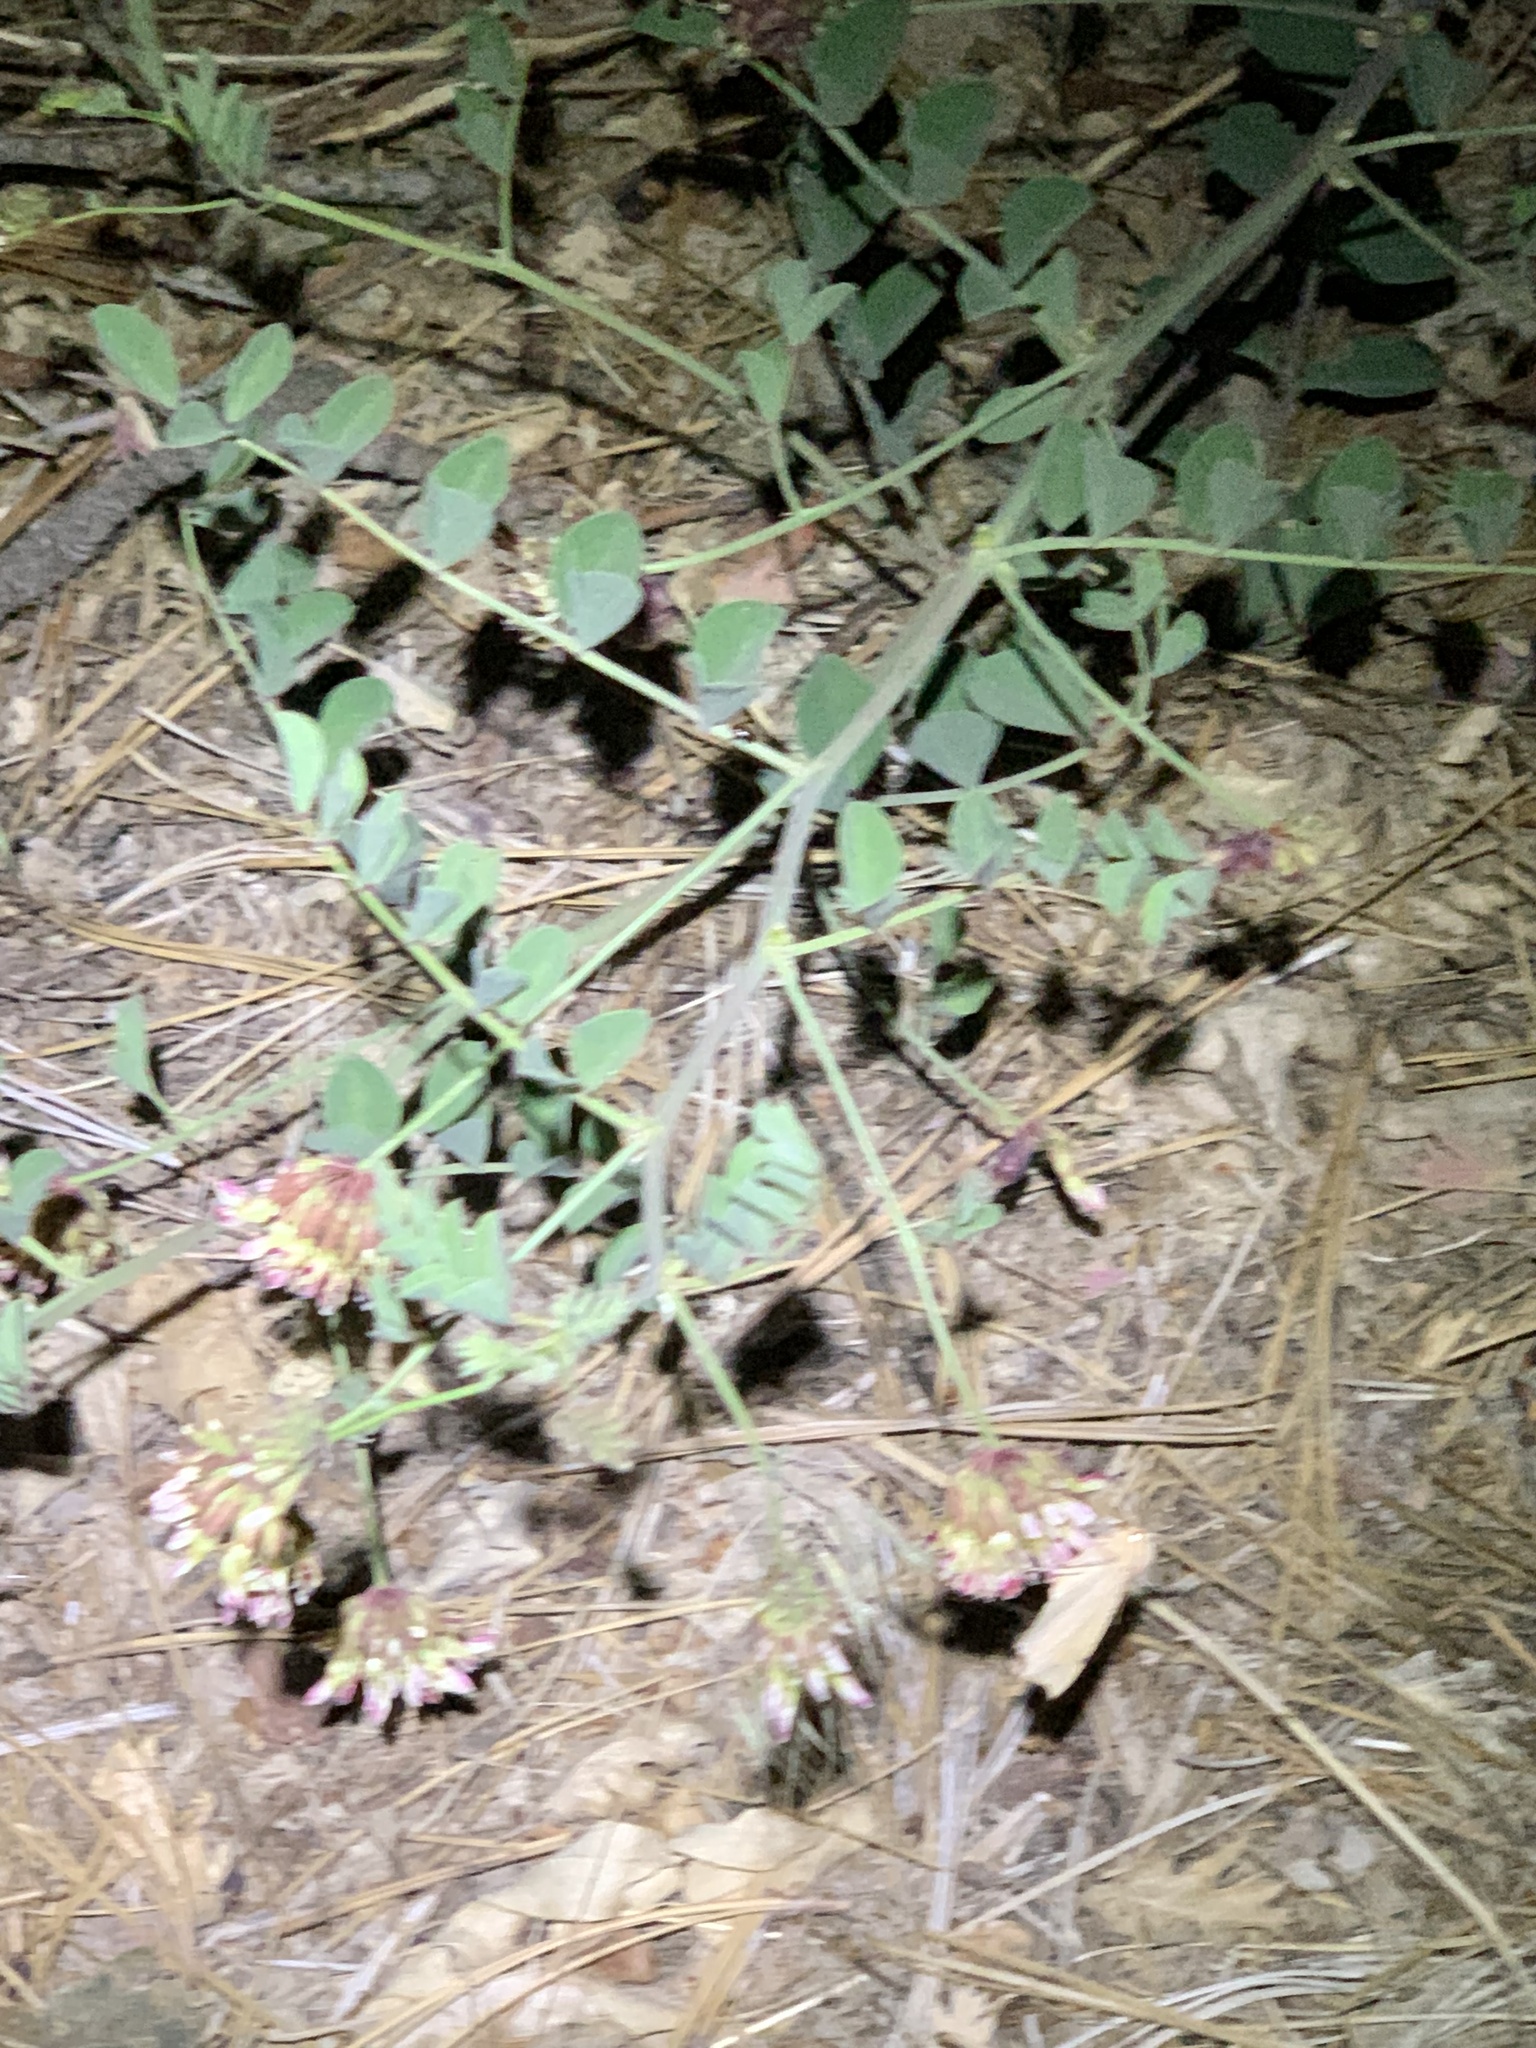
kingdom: Plantae
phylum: Tracheophyta
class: Magnoliopsida
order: Fabales
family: Fabaceae
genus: Hosackia
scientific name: Hosackia crassifolia
